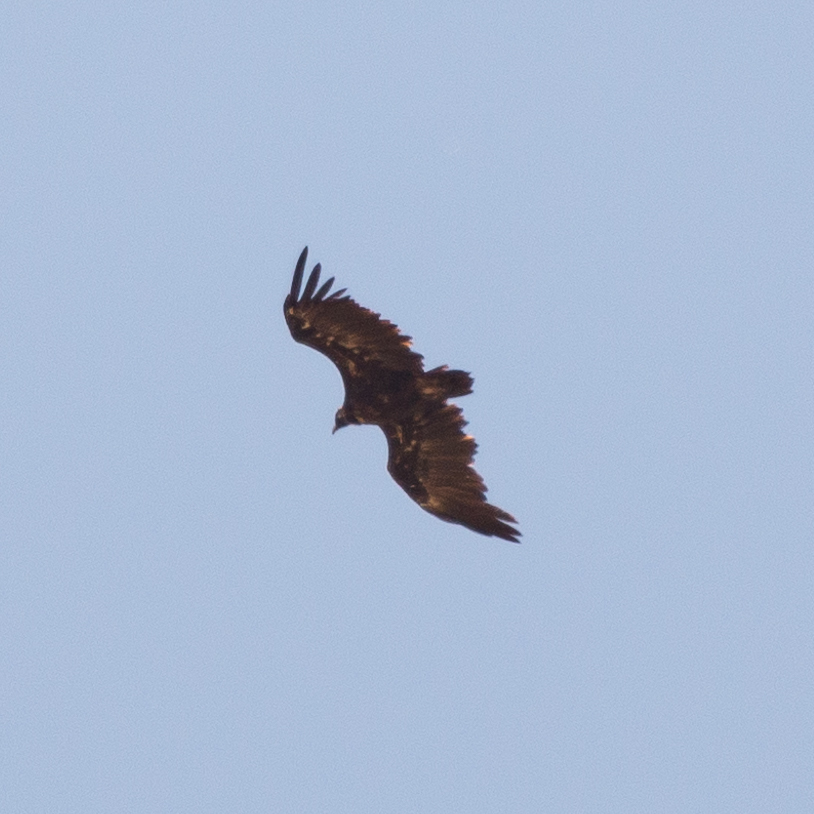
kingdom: Animalia
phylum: Chordata
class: Aves
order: Accipitriformes
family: Accipitridae
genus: Aegypius
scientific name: Aegypius monachus
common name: Cinereous vulture
